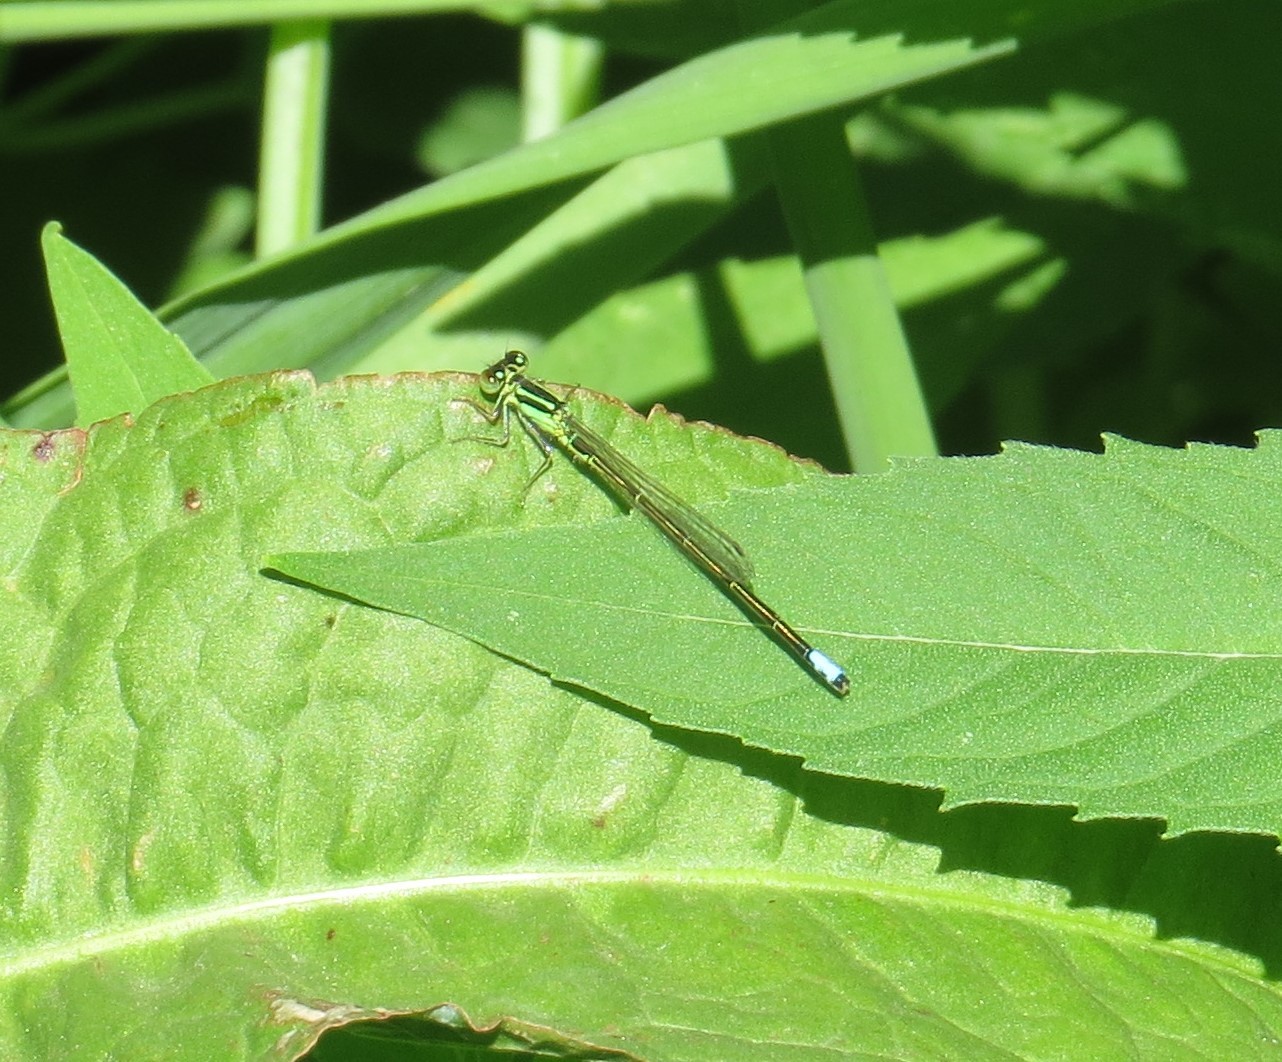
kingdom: Animalia
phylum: Arthropoda
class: Insecta
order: Odonata
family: Coenagrionidae
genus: Ischnura
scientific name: Ischnura verticalis
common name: Eastern forktail
